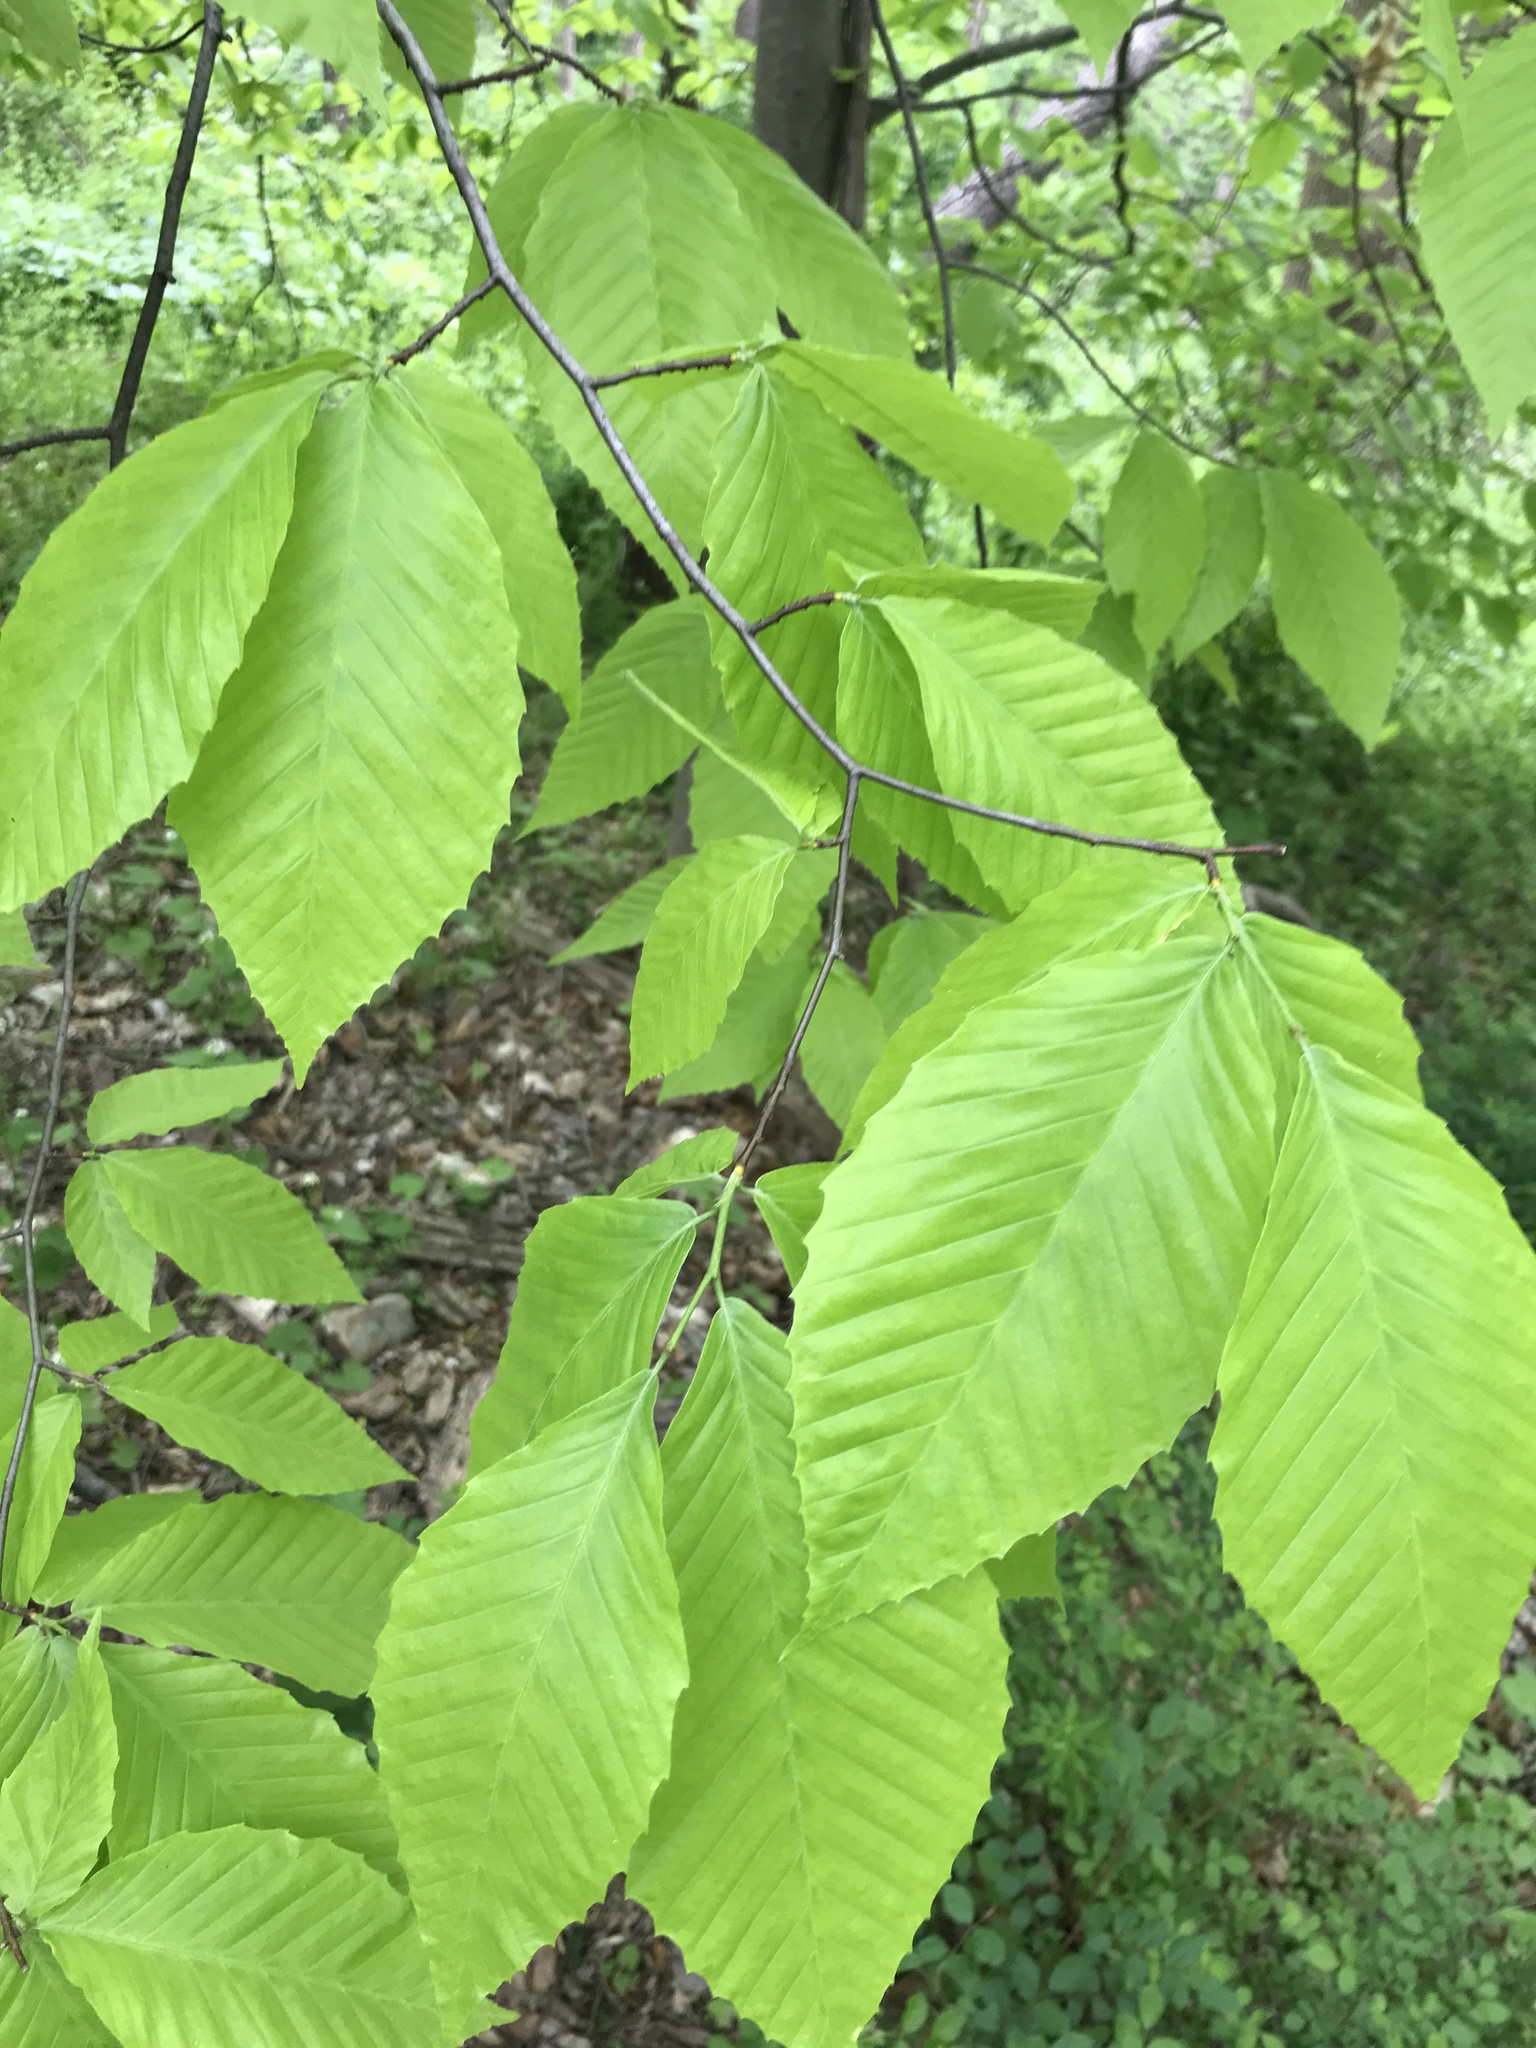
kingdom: Plantae
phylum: Tracheophyta
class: Magnoliopsida
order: Fagales
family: Fagaceae
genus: Fagus
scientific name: Fagus grandifolia
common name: American beech
